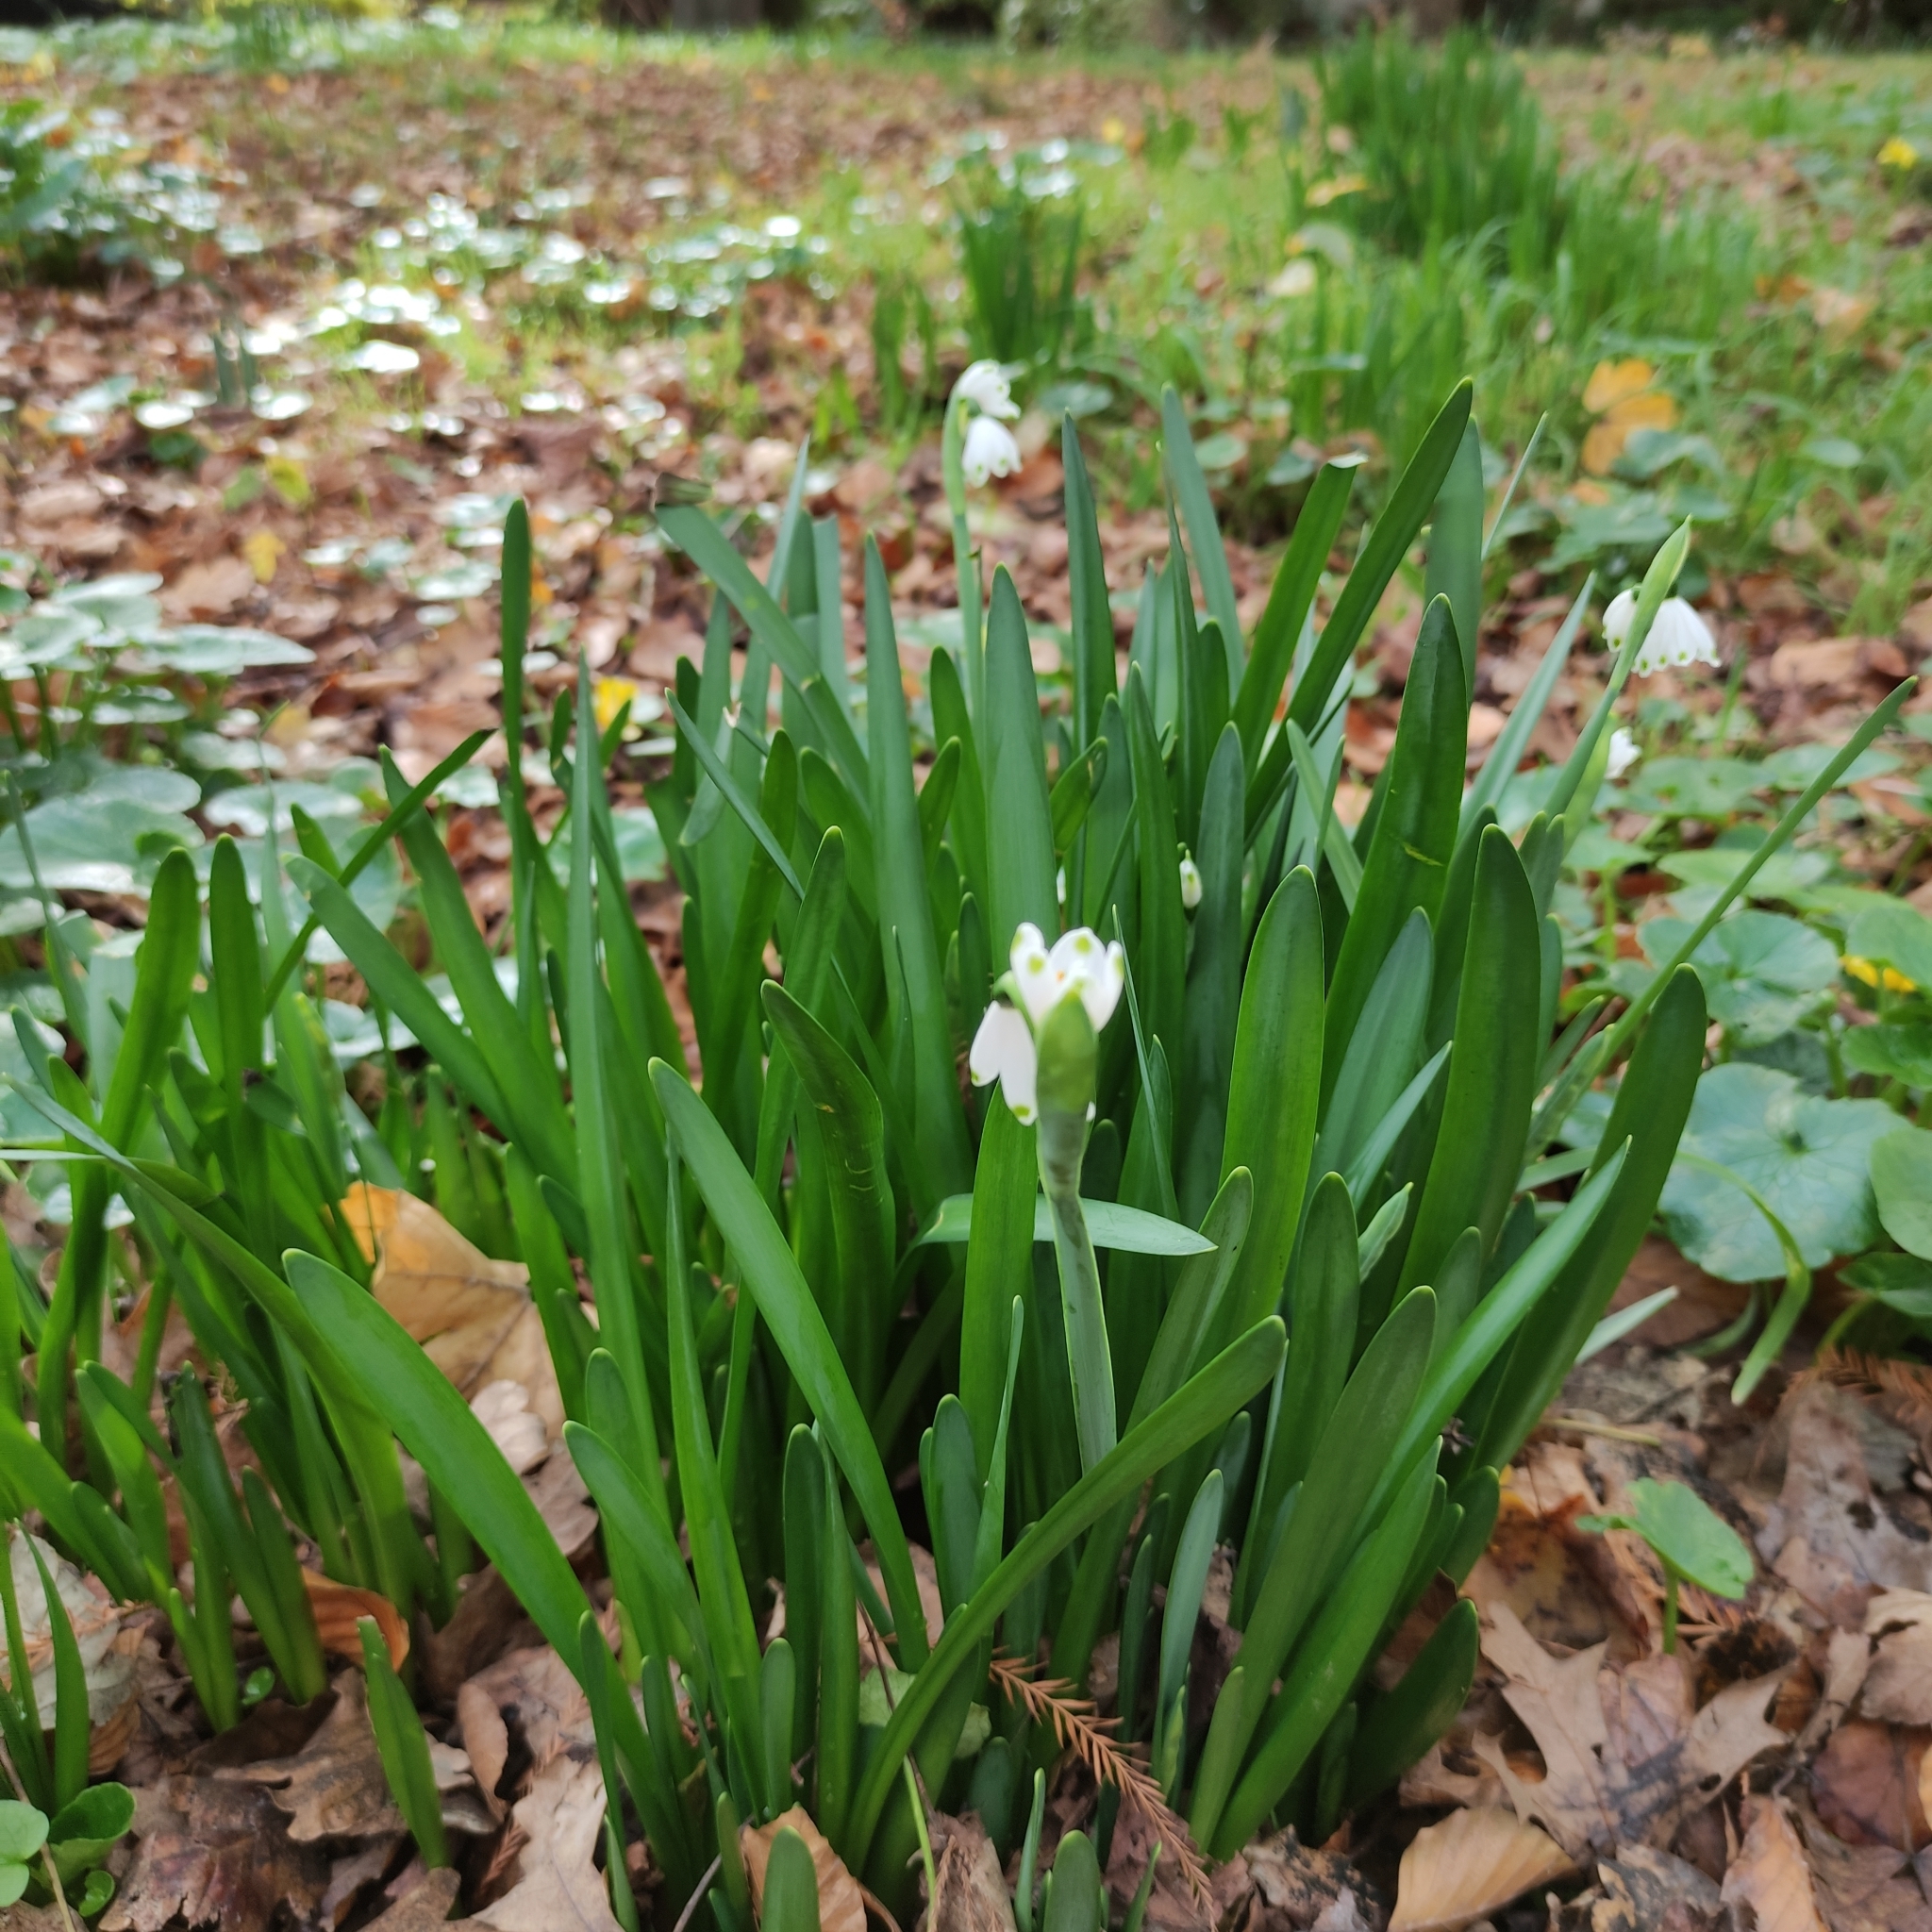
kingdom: Plantae
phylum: Tracheophyta
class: Liliopsida
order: Asparagales
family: Amaryllidaceae
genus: Leucojum
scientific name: Leucojum aestivum
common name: Summer snowflake
